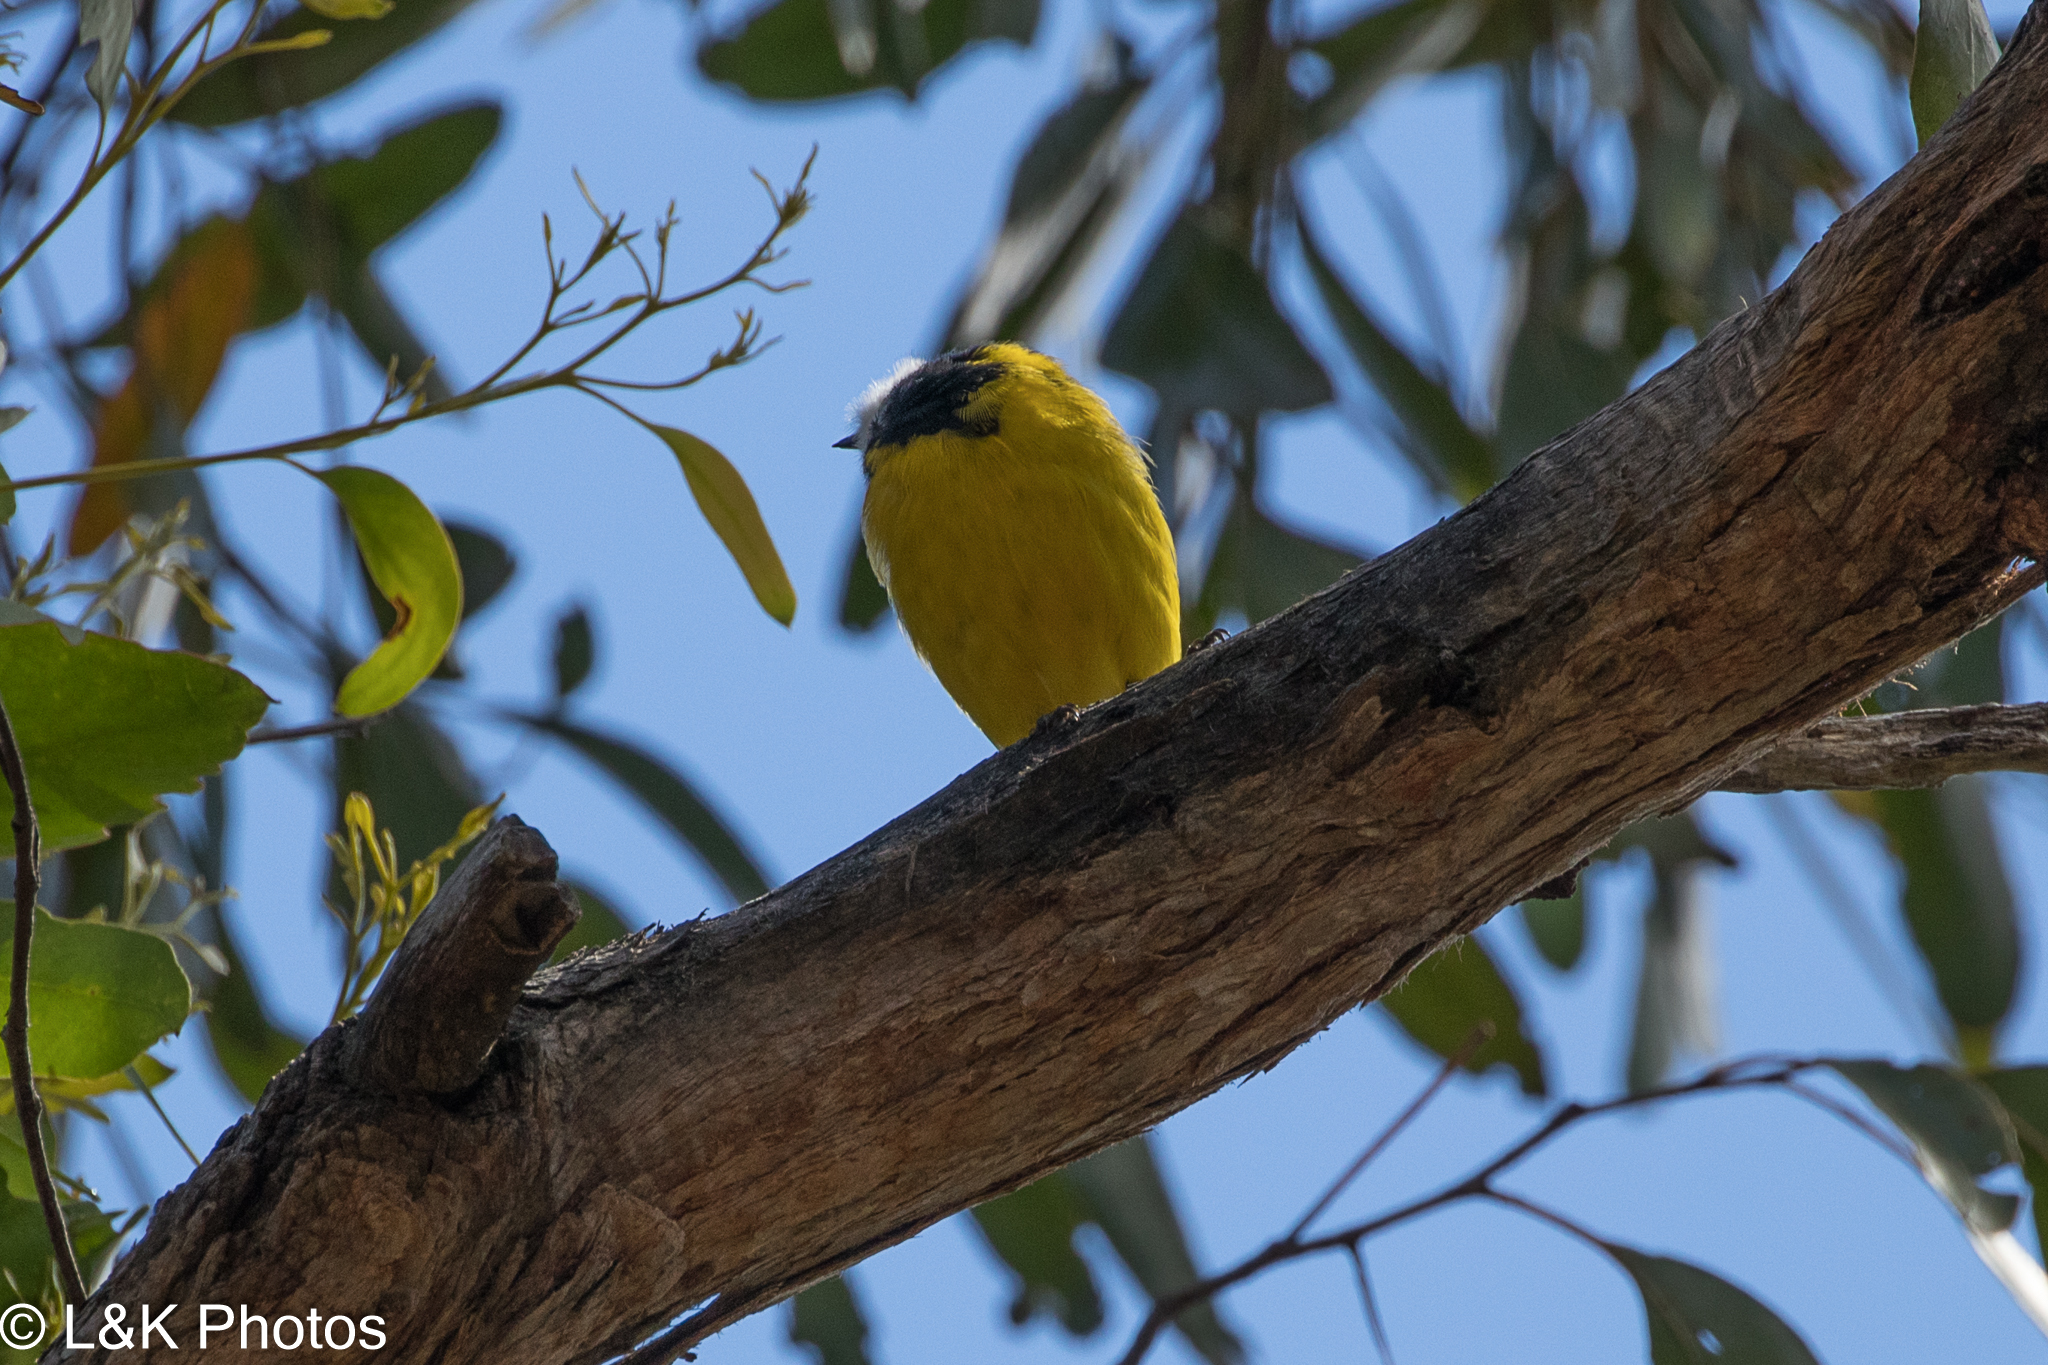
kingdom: Animalia
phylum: Chordata
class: Aves
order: Passeriformes
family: Pachycephalidae
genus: Pachycephala
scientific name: Pachycephala pectoralis
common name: Australian golden whistler
